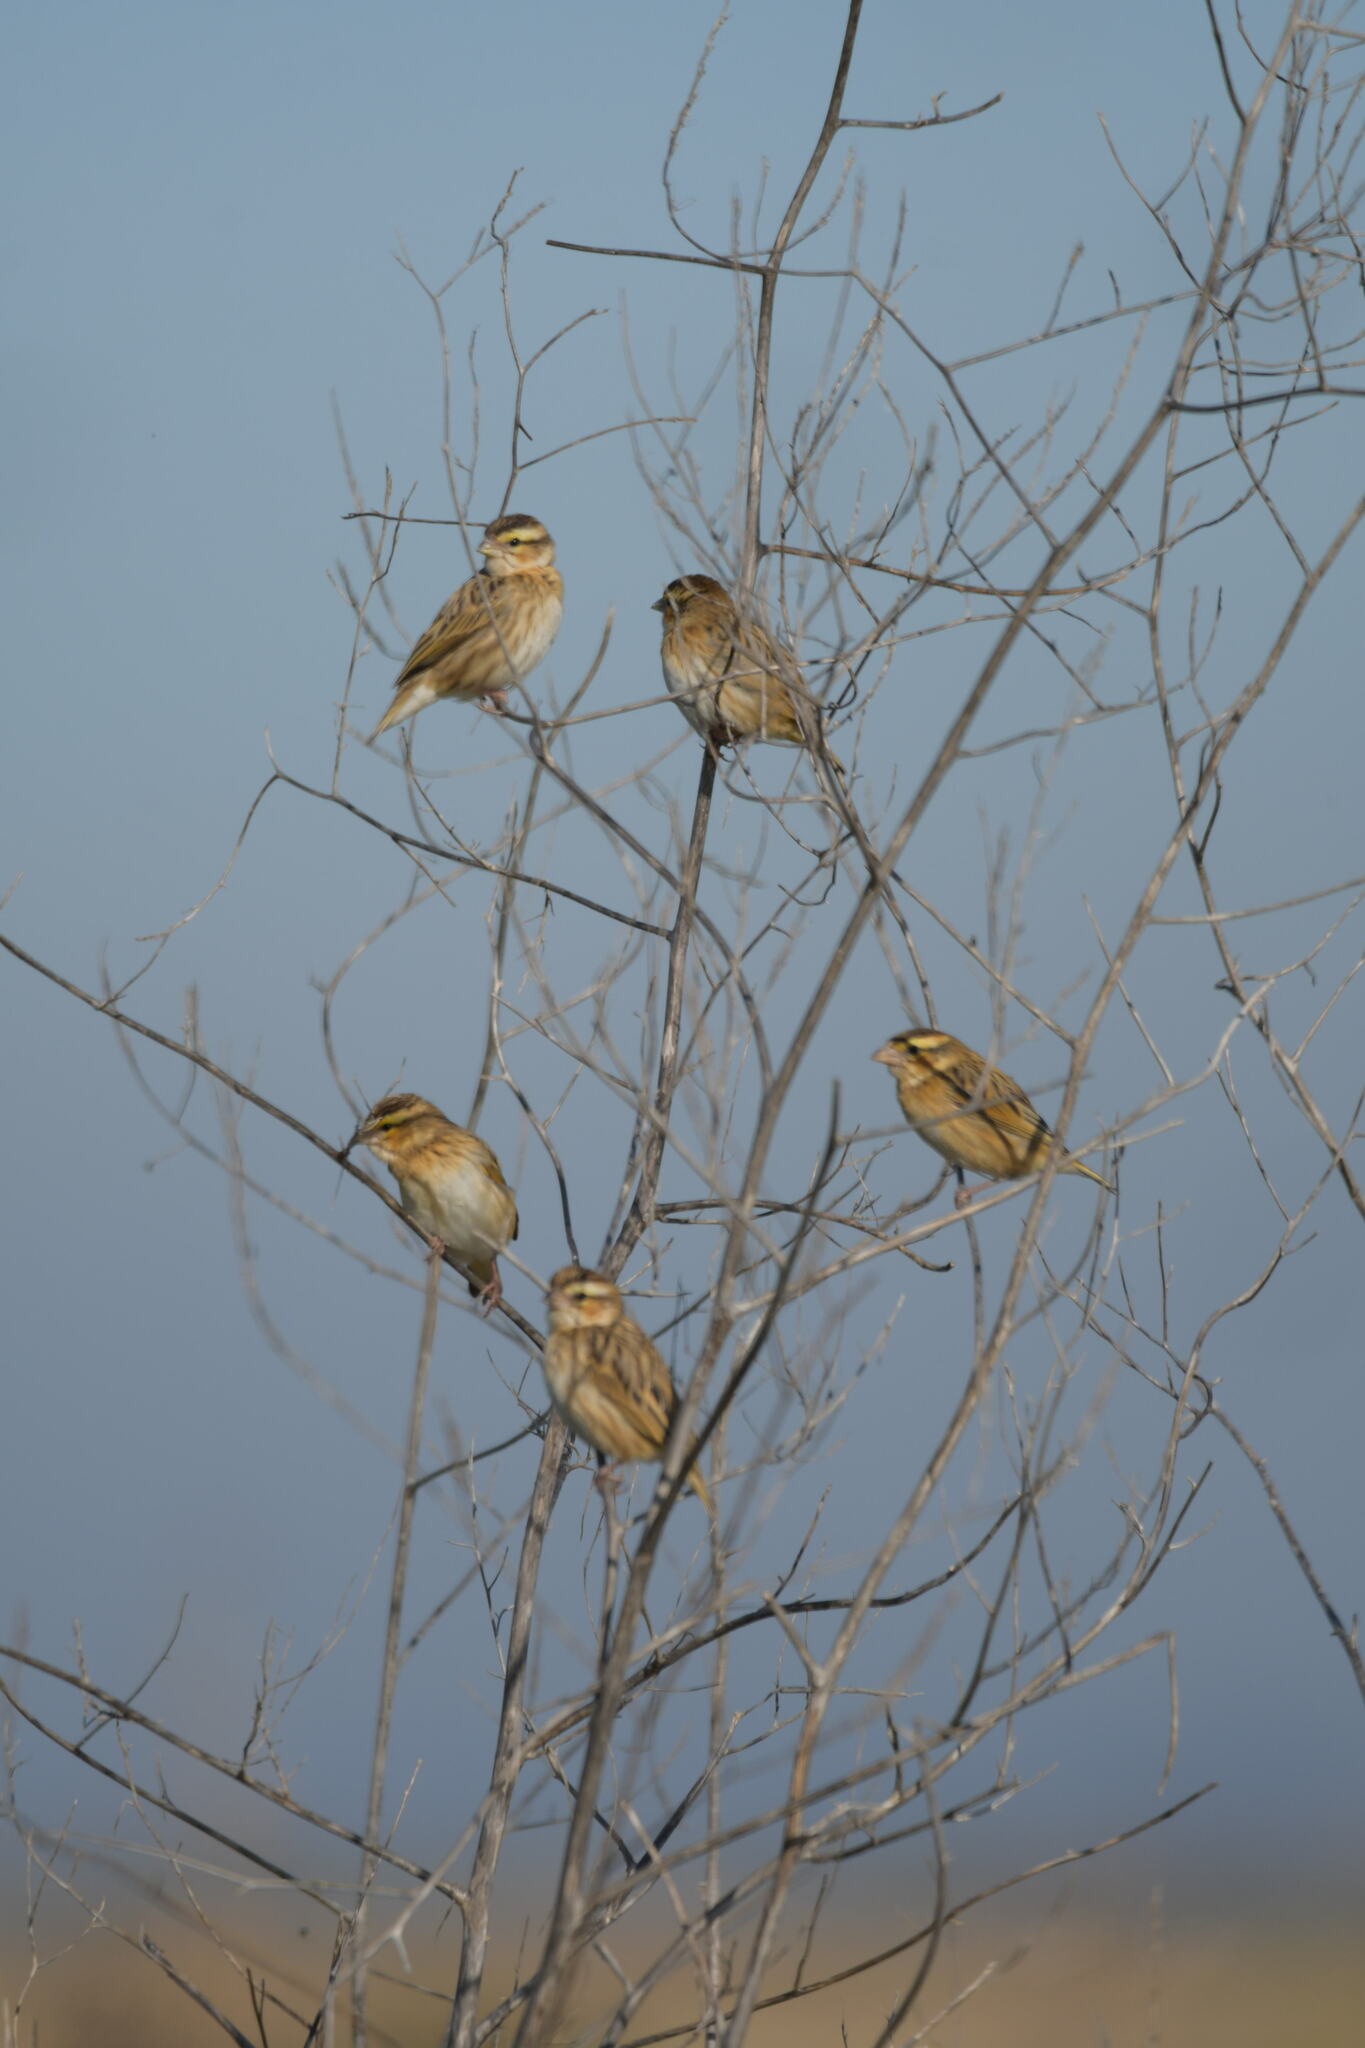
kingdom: Animalia
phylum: Chordata
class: Aves
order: Passeriformes
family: Ploceidae
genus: Euplectes
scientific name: Euplectes afer
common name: Yellow-crowned bishop
